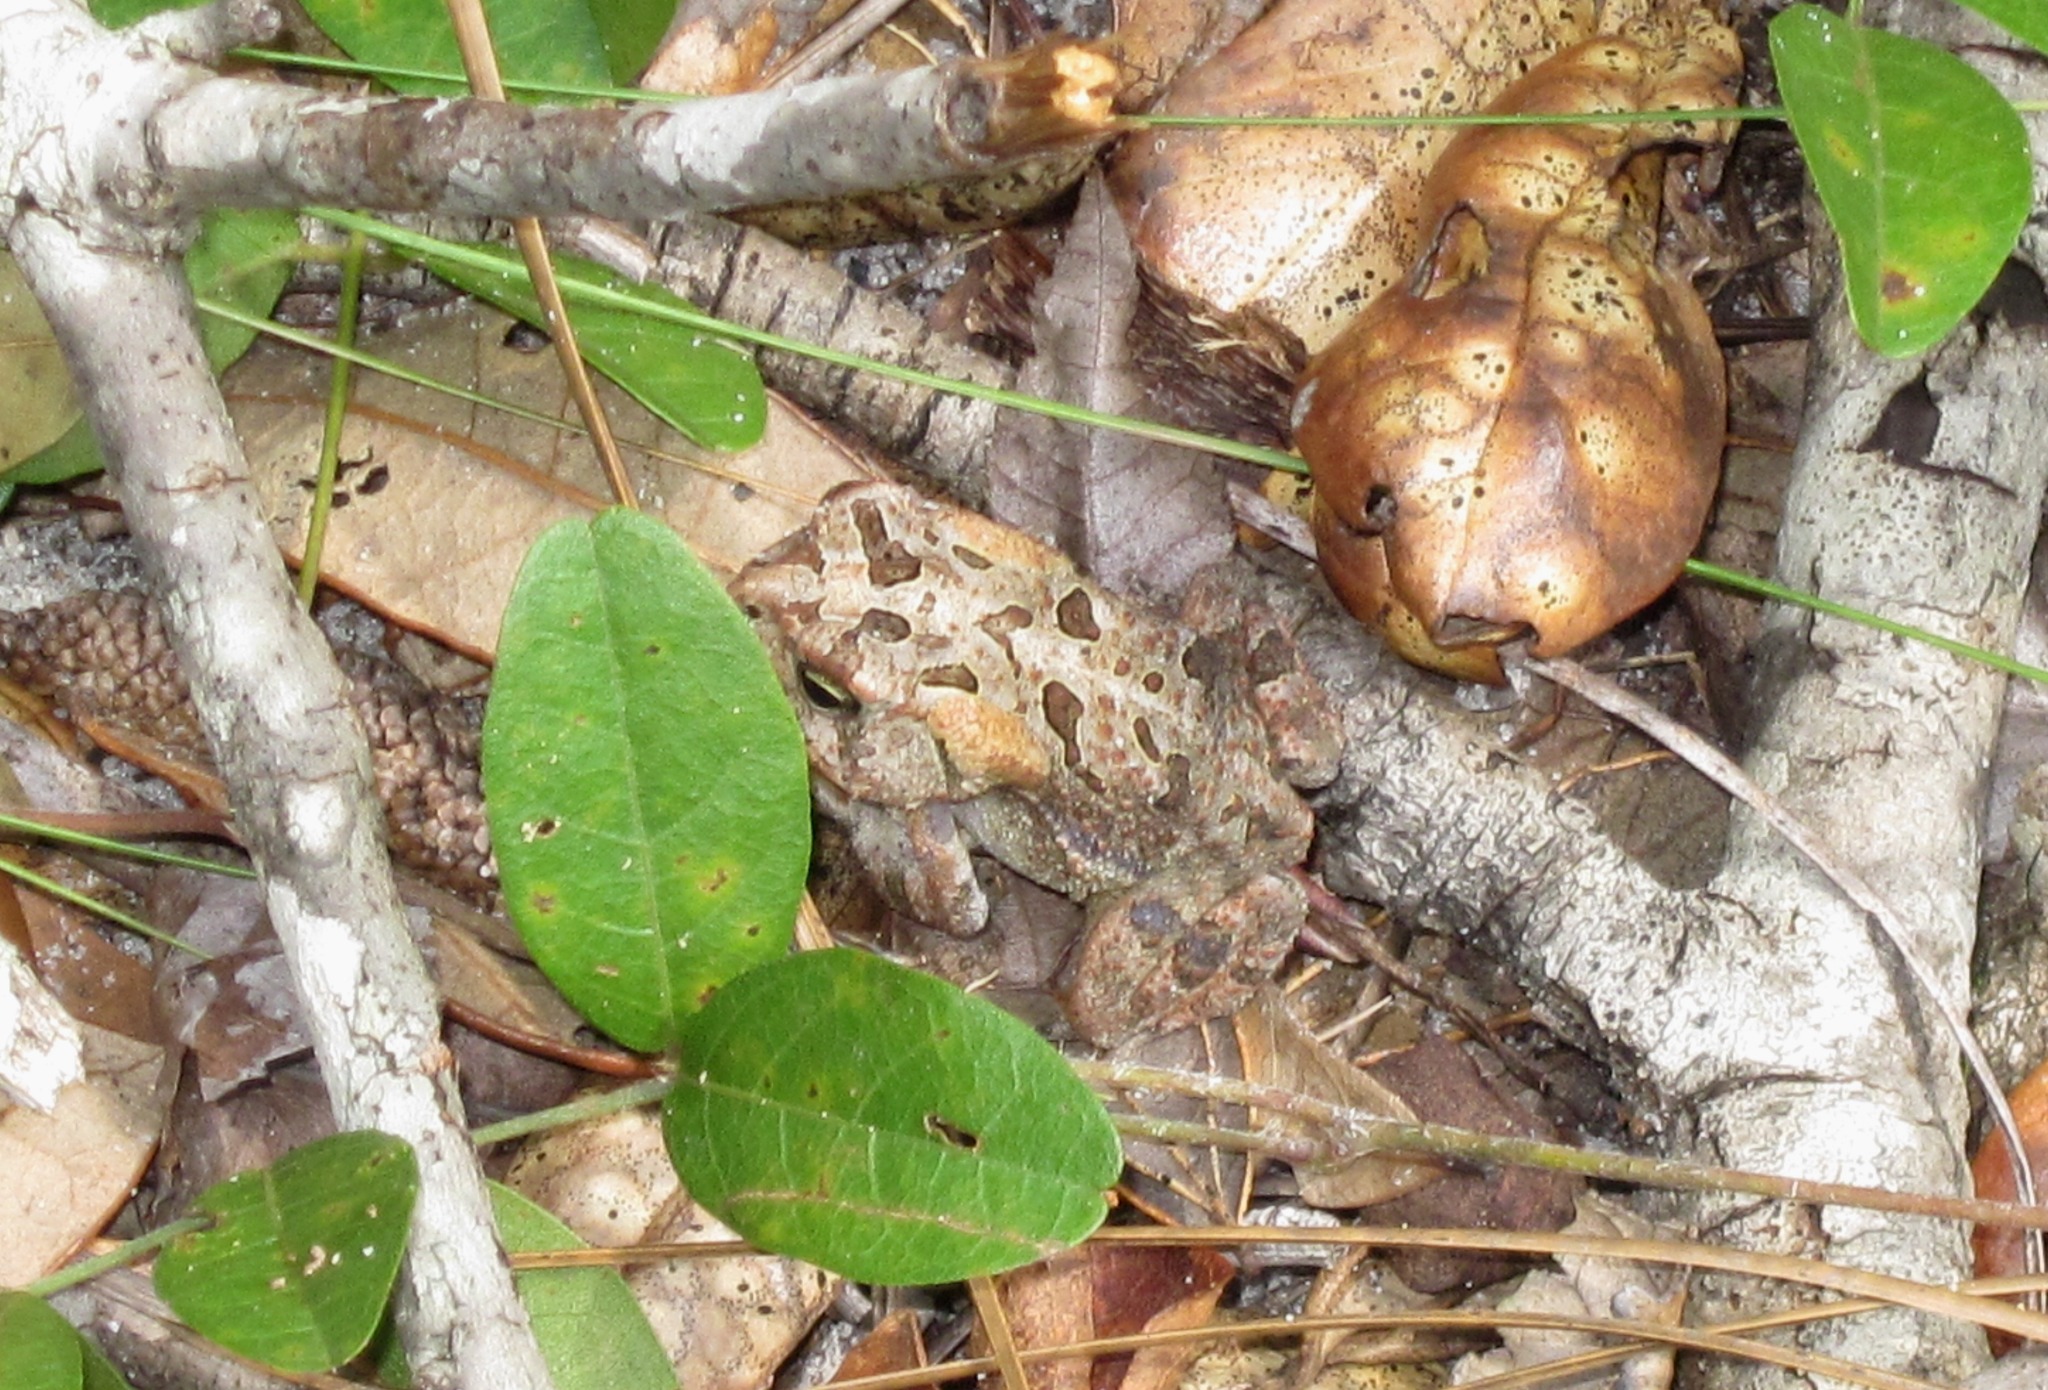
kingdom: Animalia
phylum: Chordata
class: Amphibia
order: Anura
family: Bufonidae
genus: Anaxyrus
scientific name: Anaxyrus terrestris
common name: Southern toad
